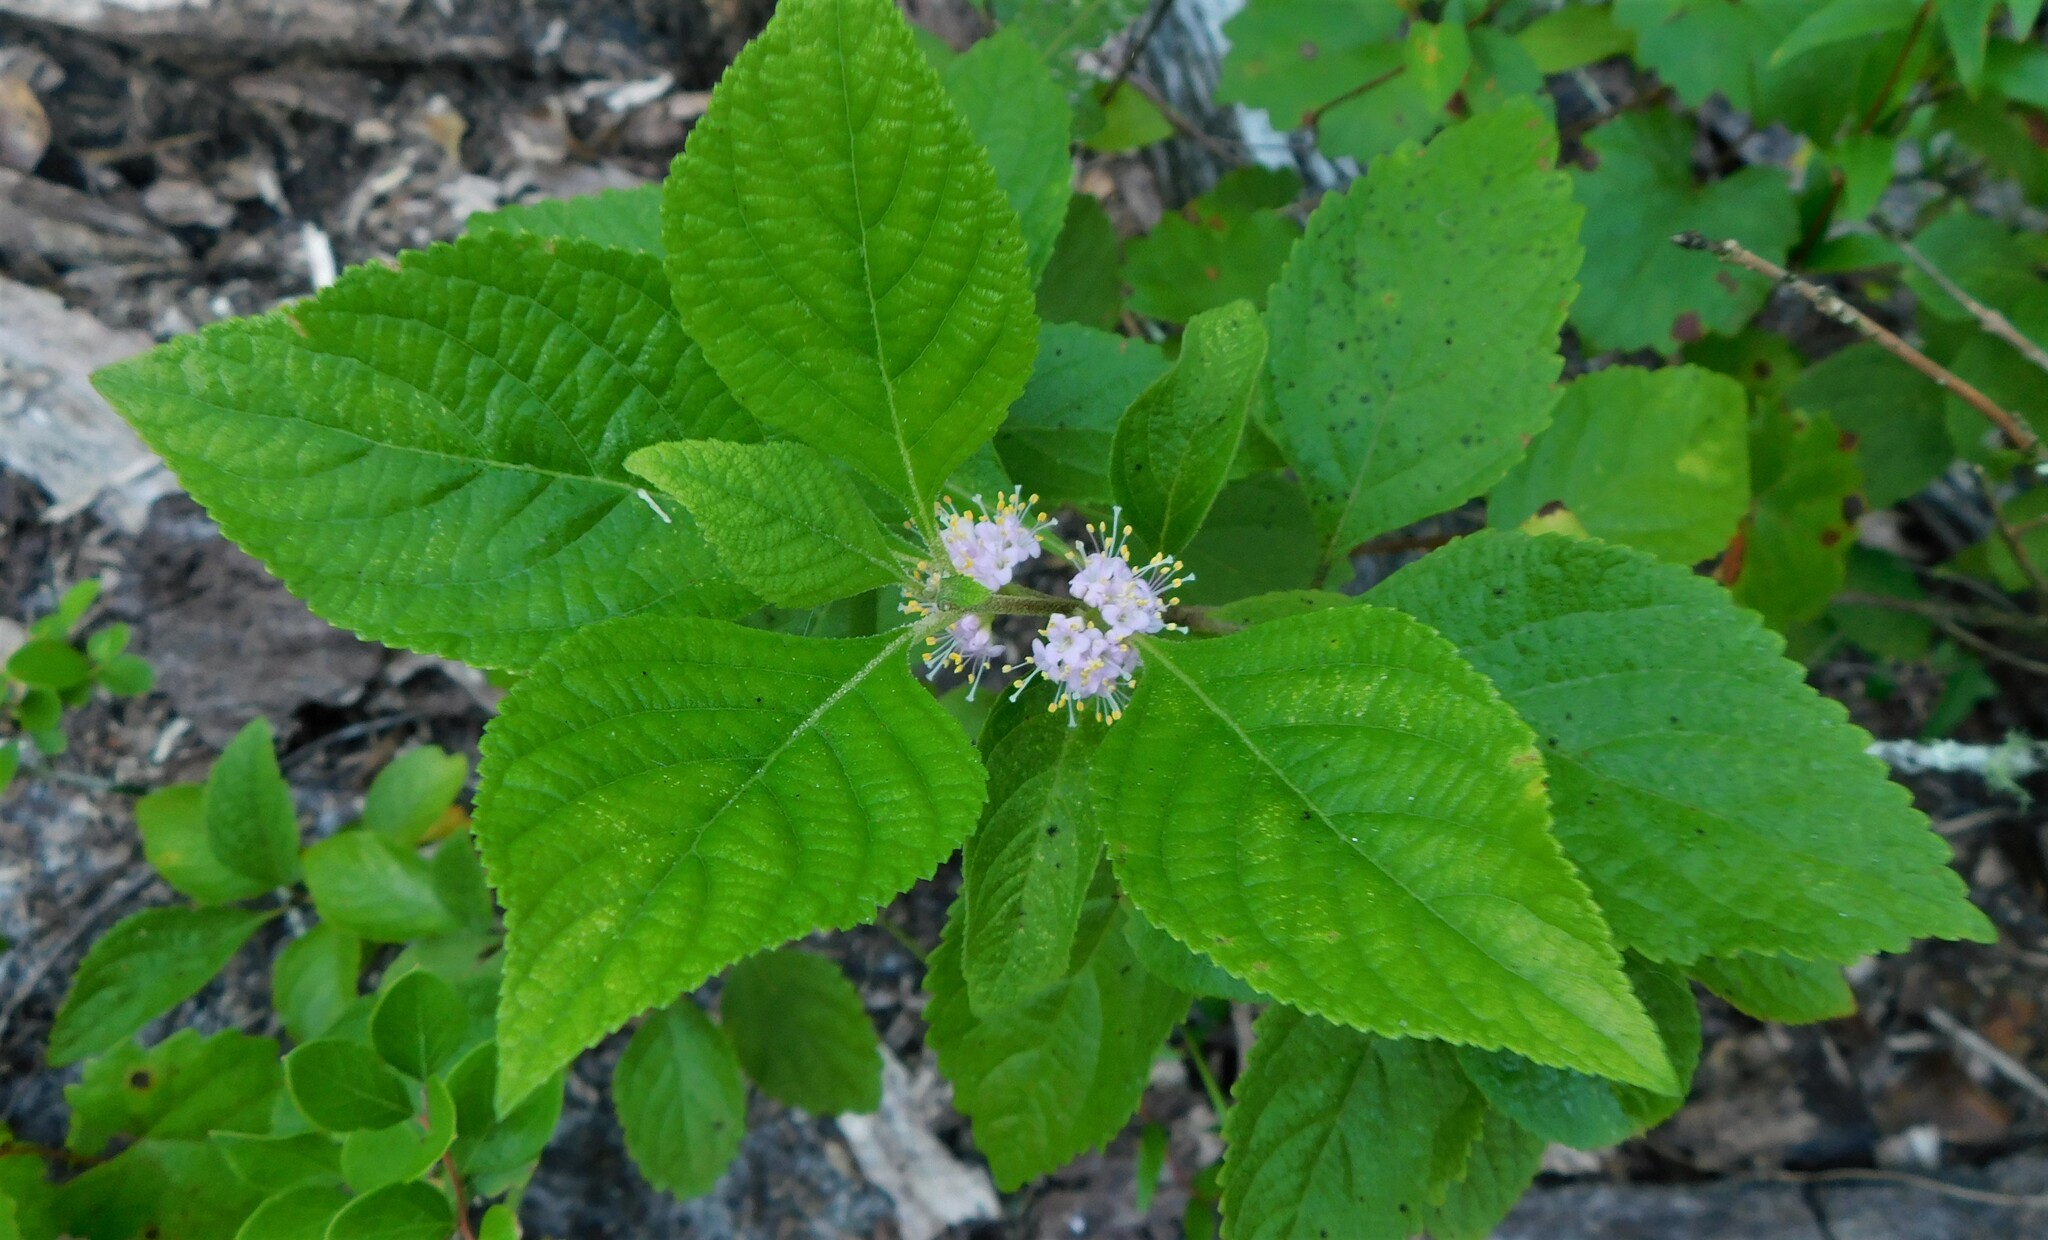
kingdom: Plantae
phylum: Tracheophyta
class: Magnoliopsida
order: Lamiales
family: Lamiaceae
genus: Callicarpa
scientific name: Callicarpa americana
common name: American beautyberry
